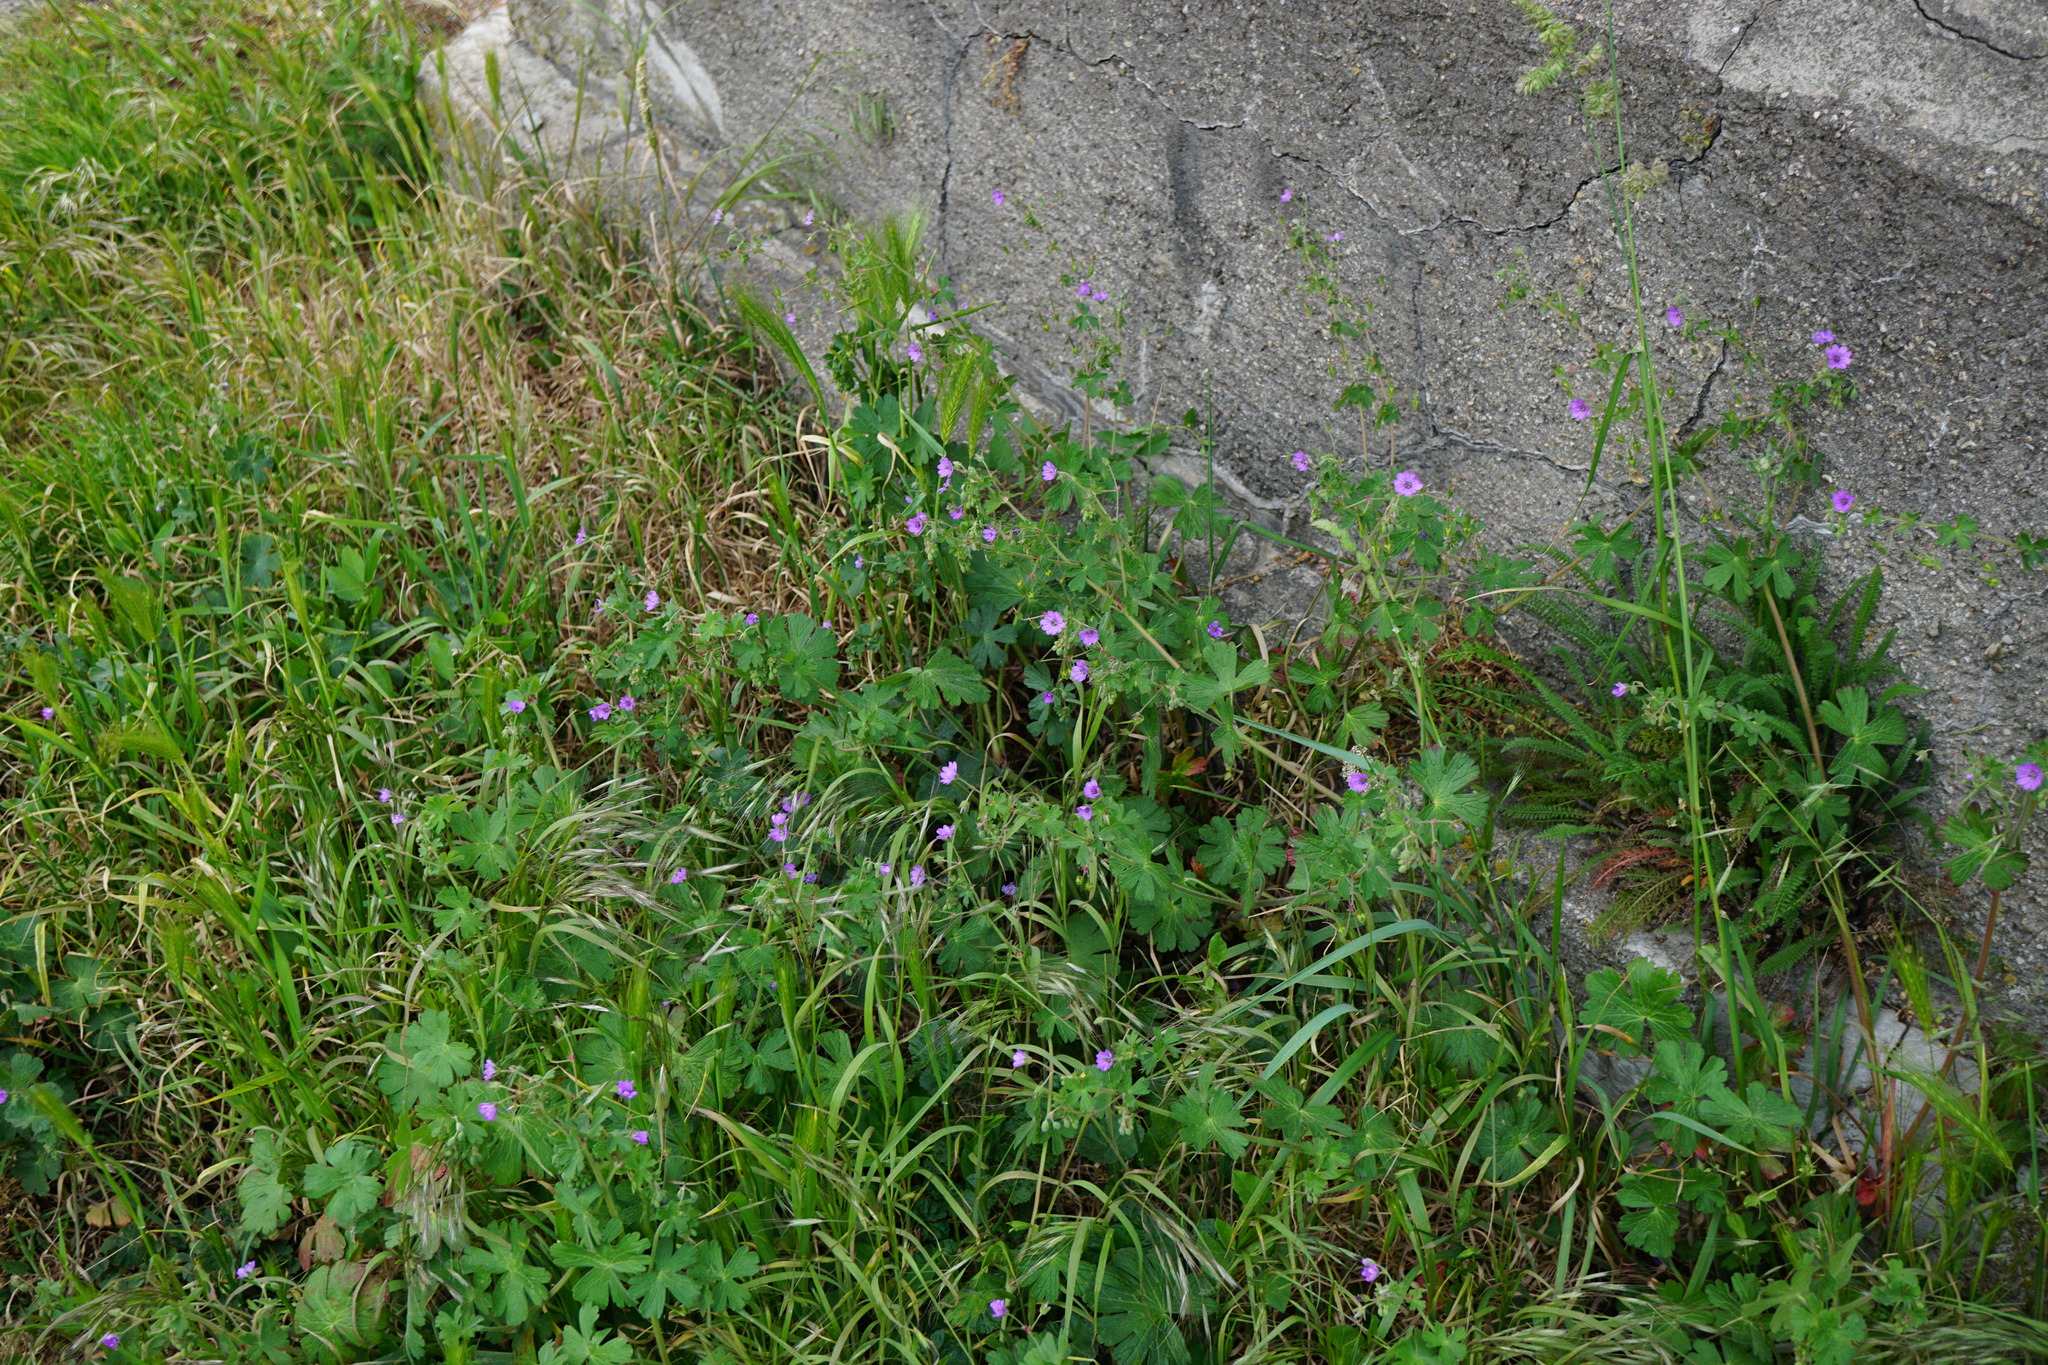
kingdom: Plantae
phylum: Tracheophyta
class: Magnoliopsida
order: Geraniales
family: Geraniaceae
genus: Geranium
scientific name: Geranium pyrenaicum
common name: Hedgerow crane's-bill
